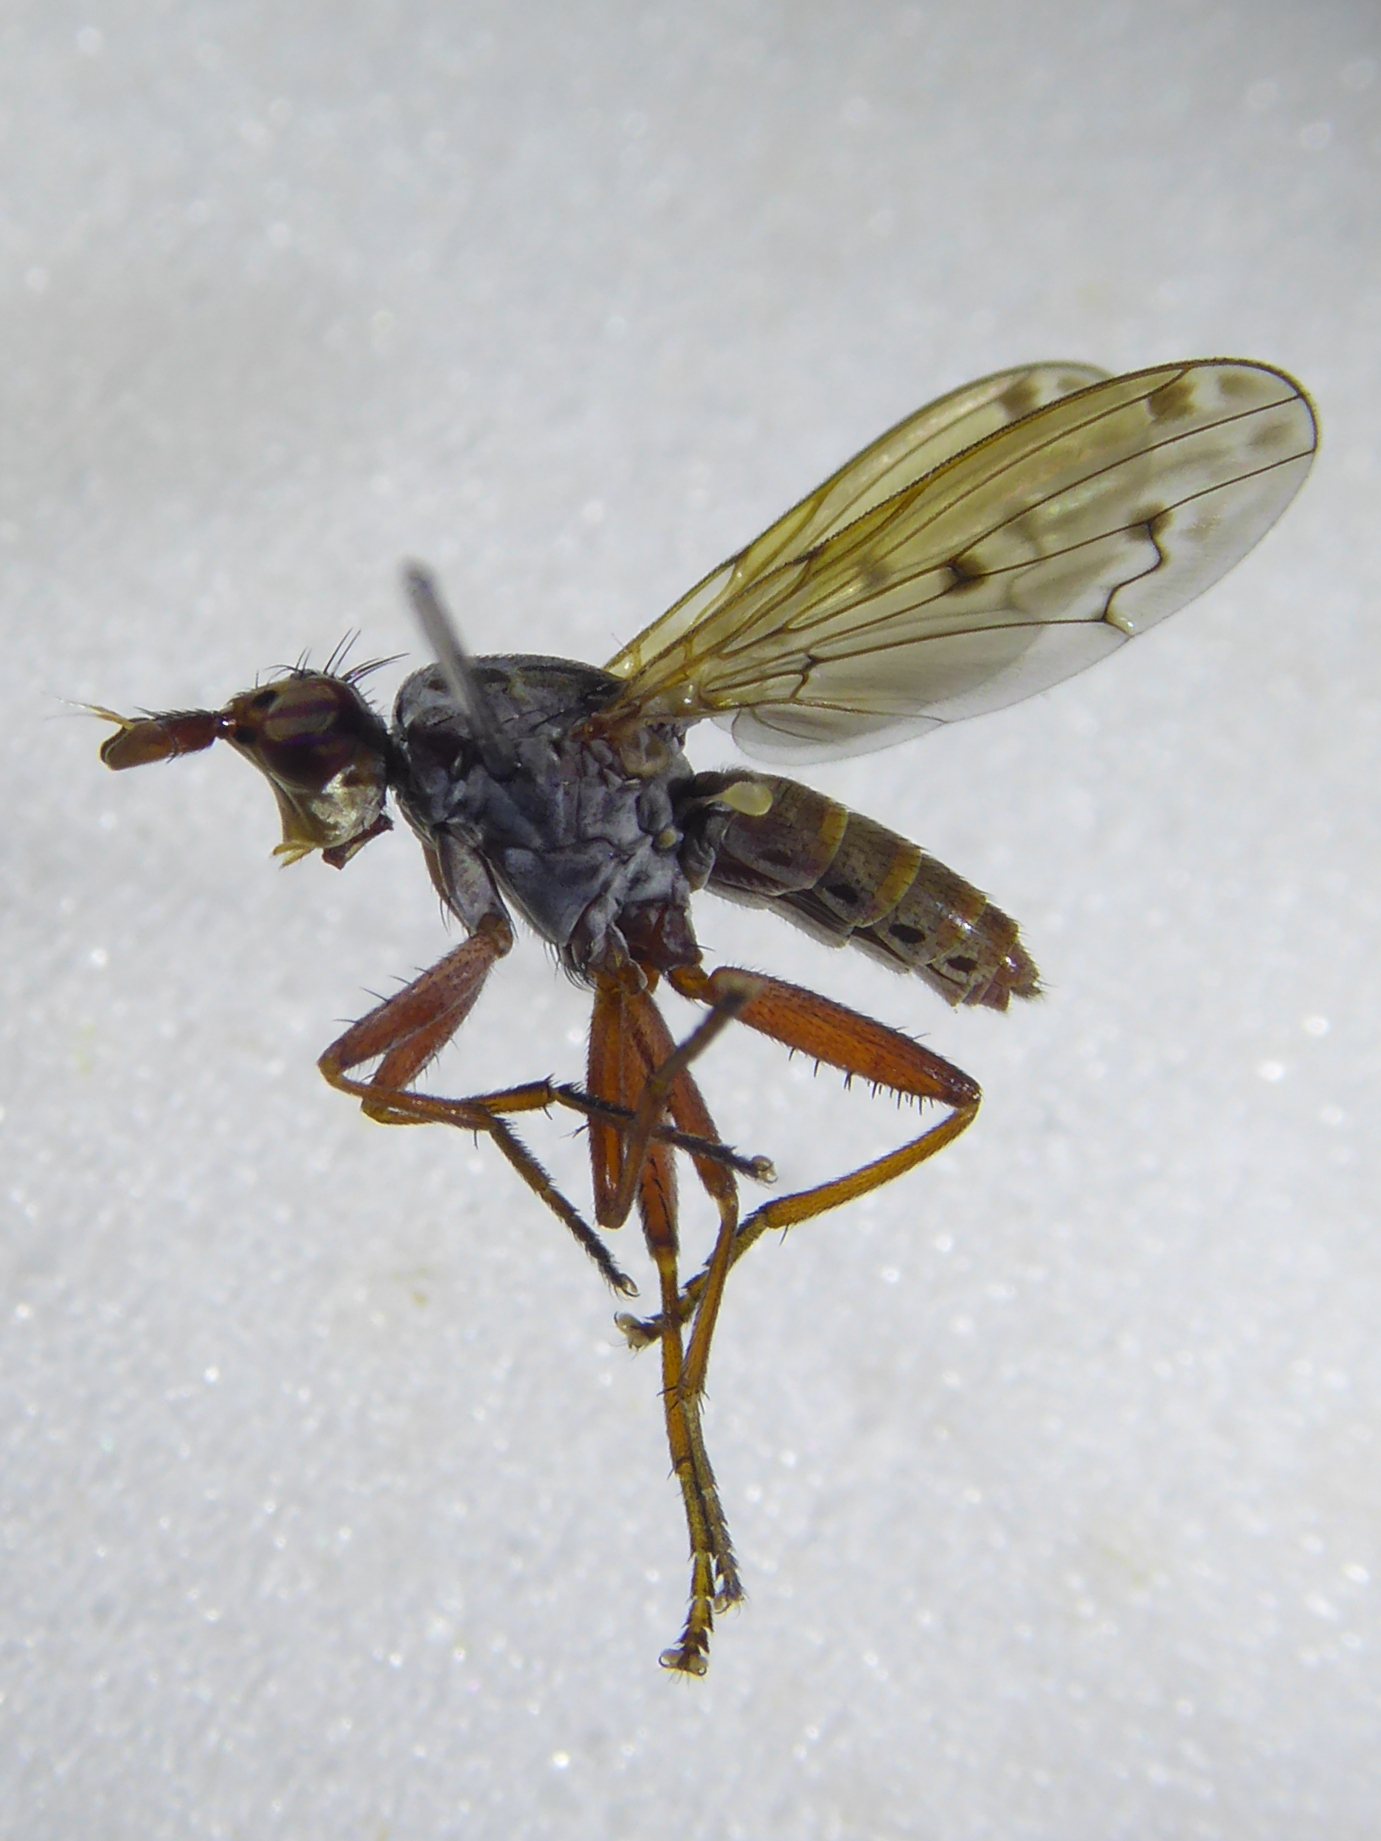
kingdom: Animalia
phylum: Arthropoda
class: Insecta
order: Diptera
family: Sciomyzidae
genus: Elgiva
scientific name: Elgiva cucularia
